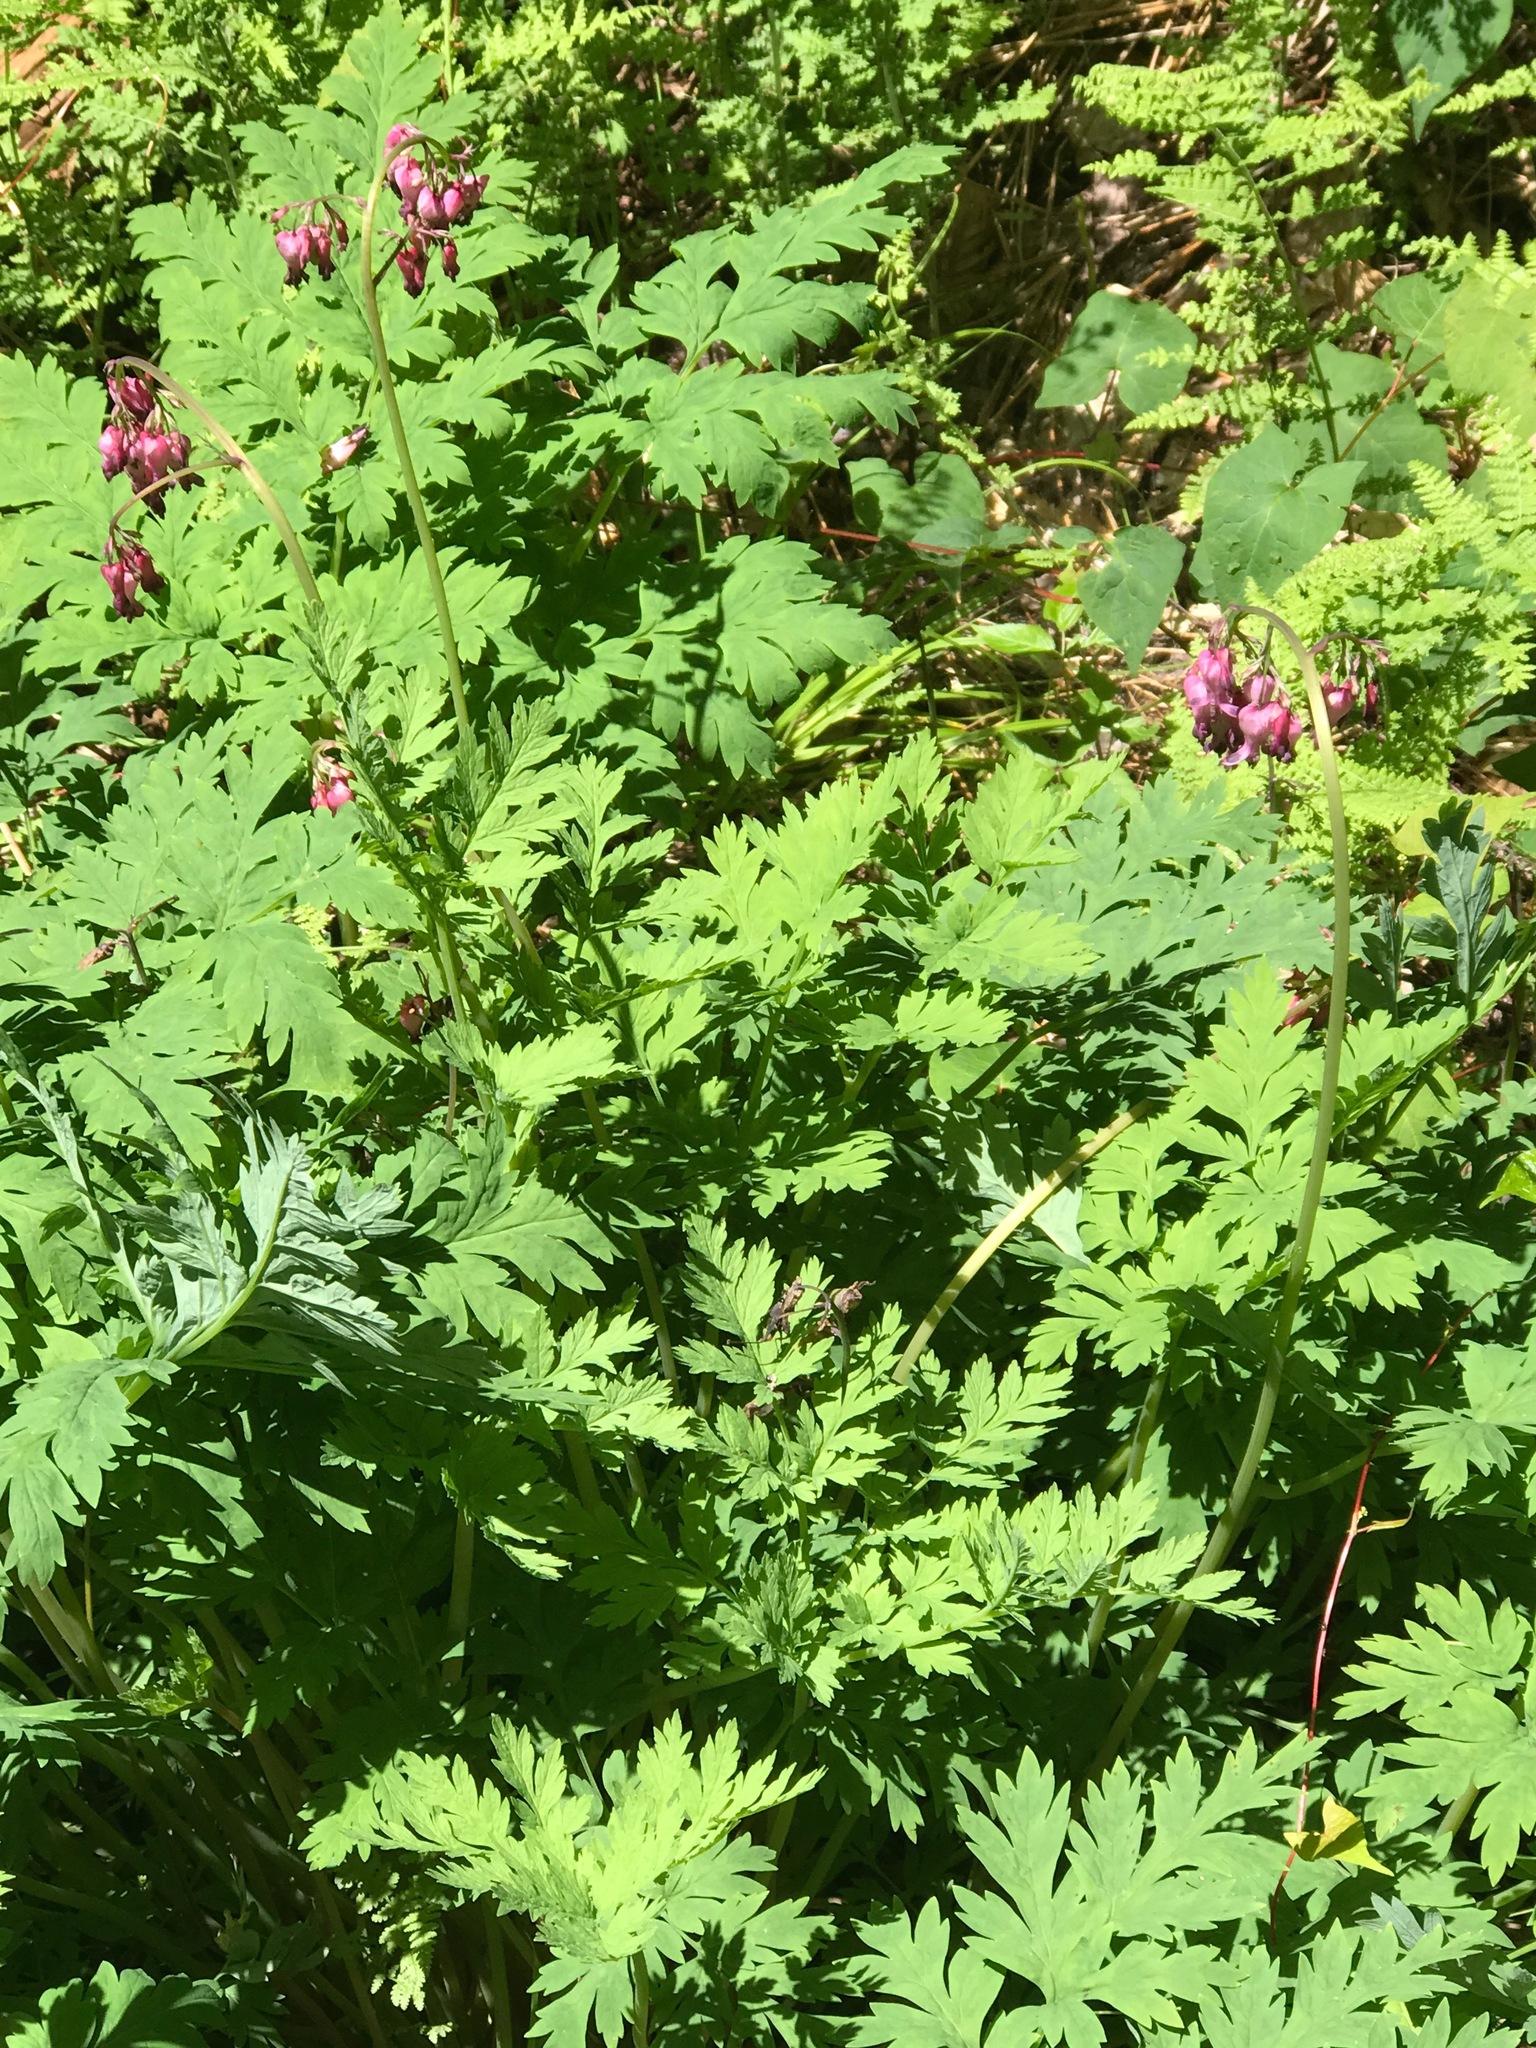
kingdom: Plantae
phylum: Tracheophyta
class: Magnoliopsida
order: Ranunculales
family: Papaveraceae
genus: Dicentra
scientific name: Dicentra eximia
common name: Turkey-corn
